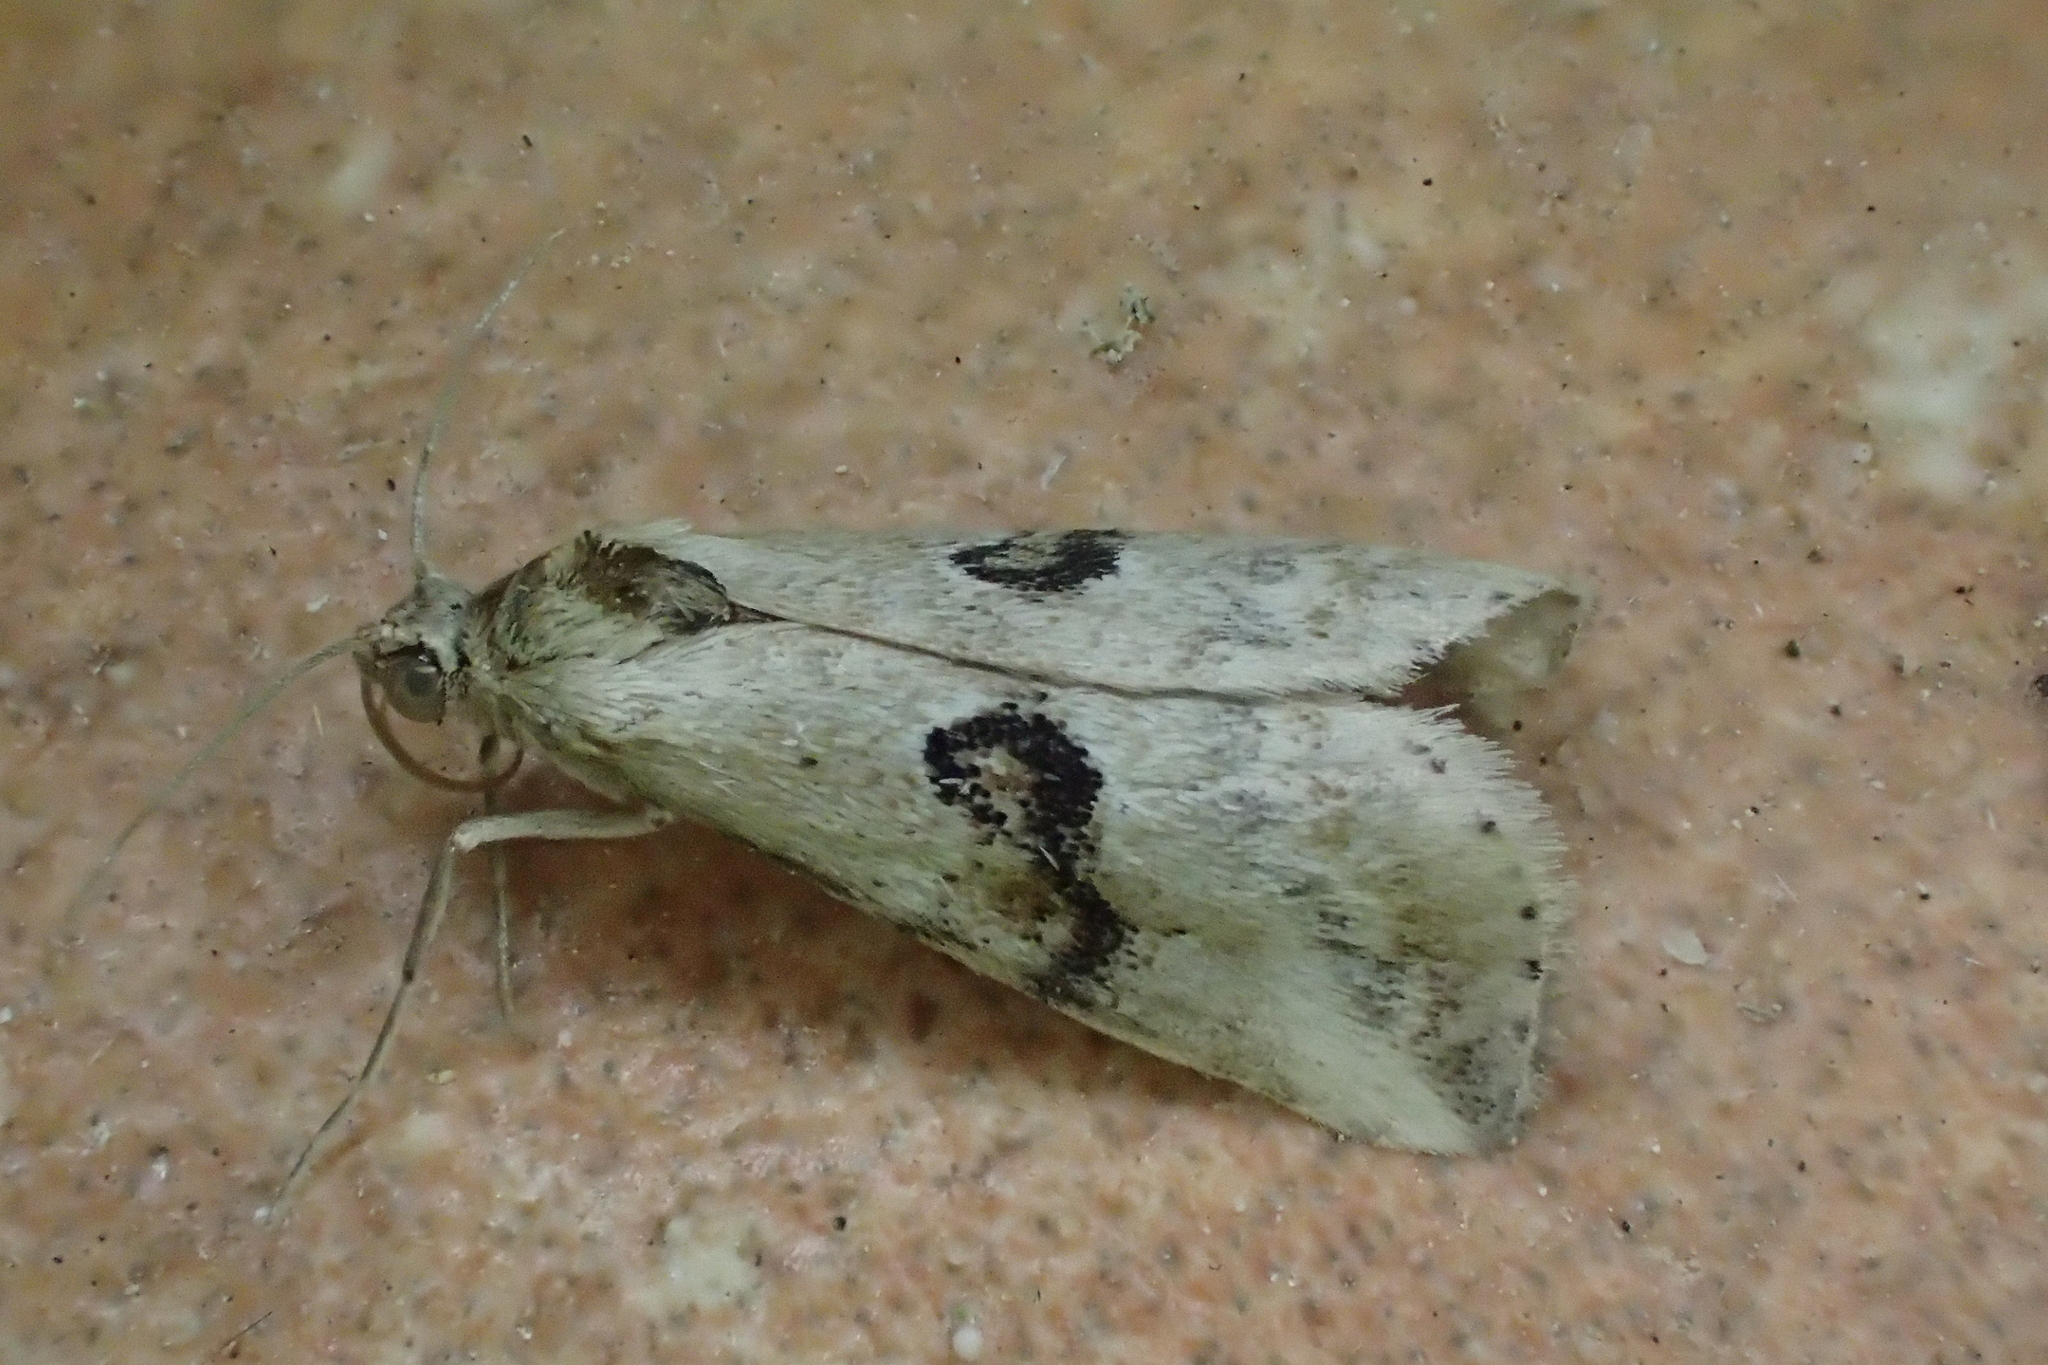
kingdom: Animalia
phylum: Arthropoda
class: Insecta
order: Lepidoptera
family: Erebidae
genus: Zebeeba
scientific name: Zebeeba falsalis
